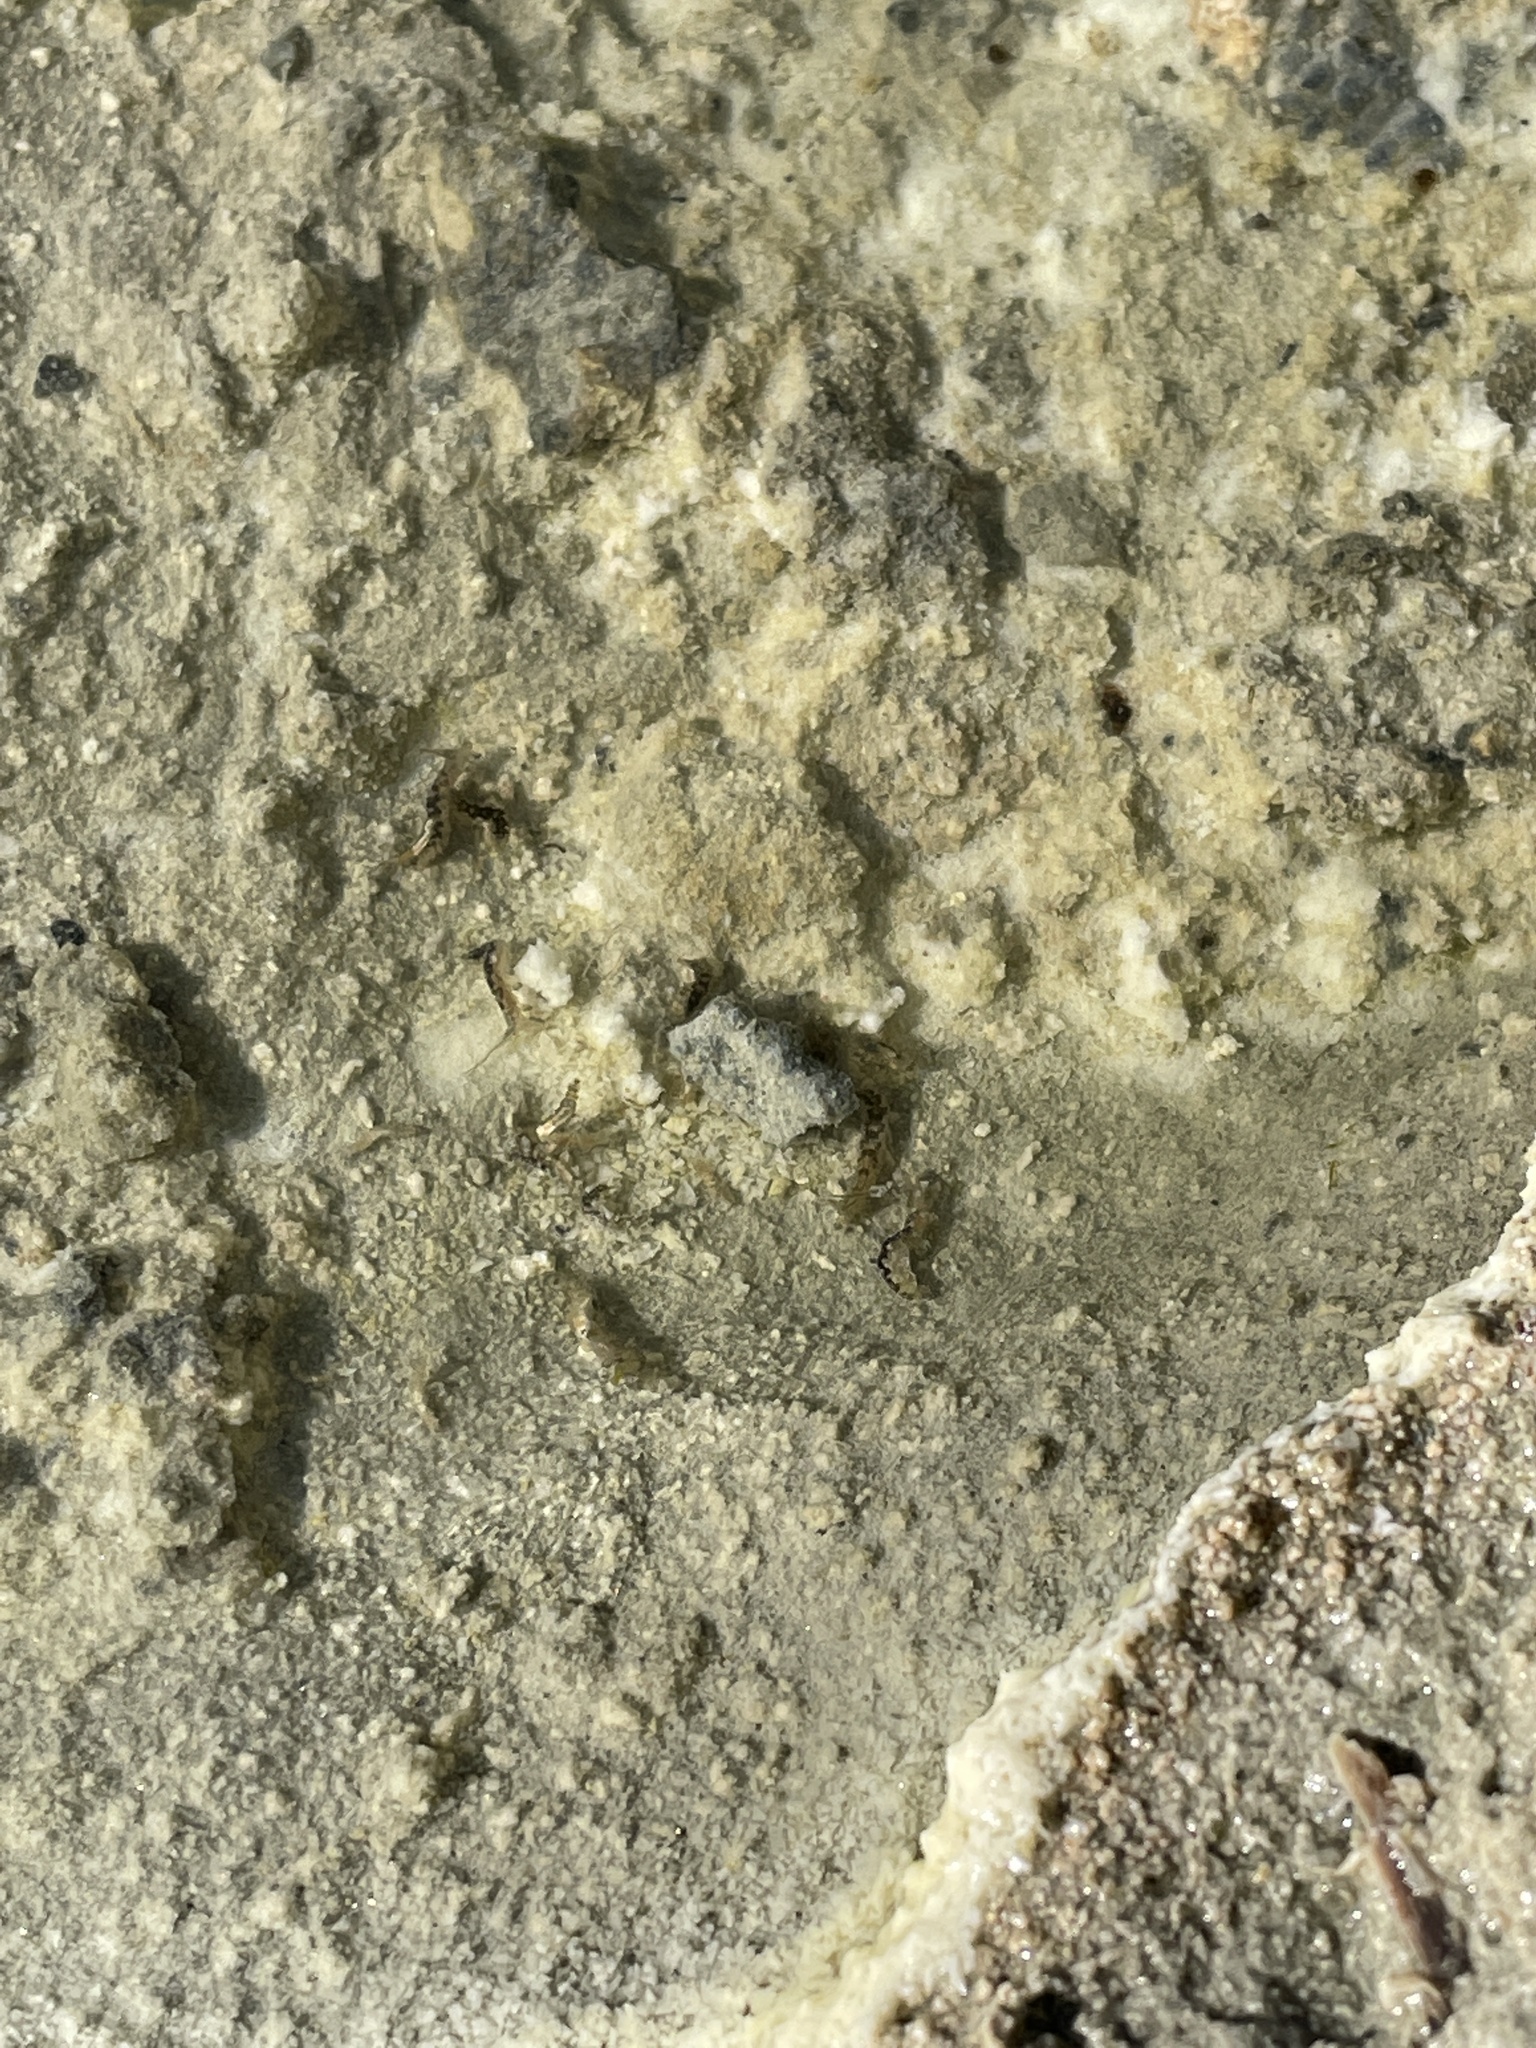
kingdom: Animalia
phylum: Arthropoda
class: Insecta
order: Diptera
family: Ephydridae
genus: Cirrula
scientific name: Cirrula hians
